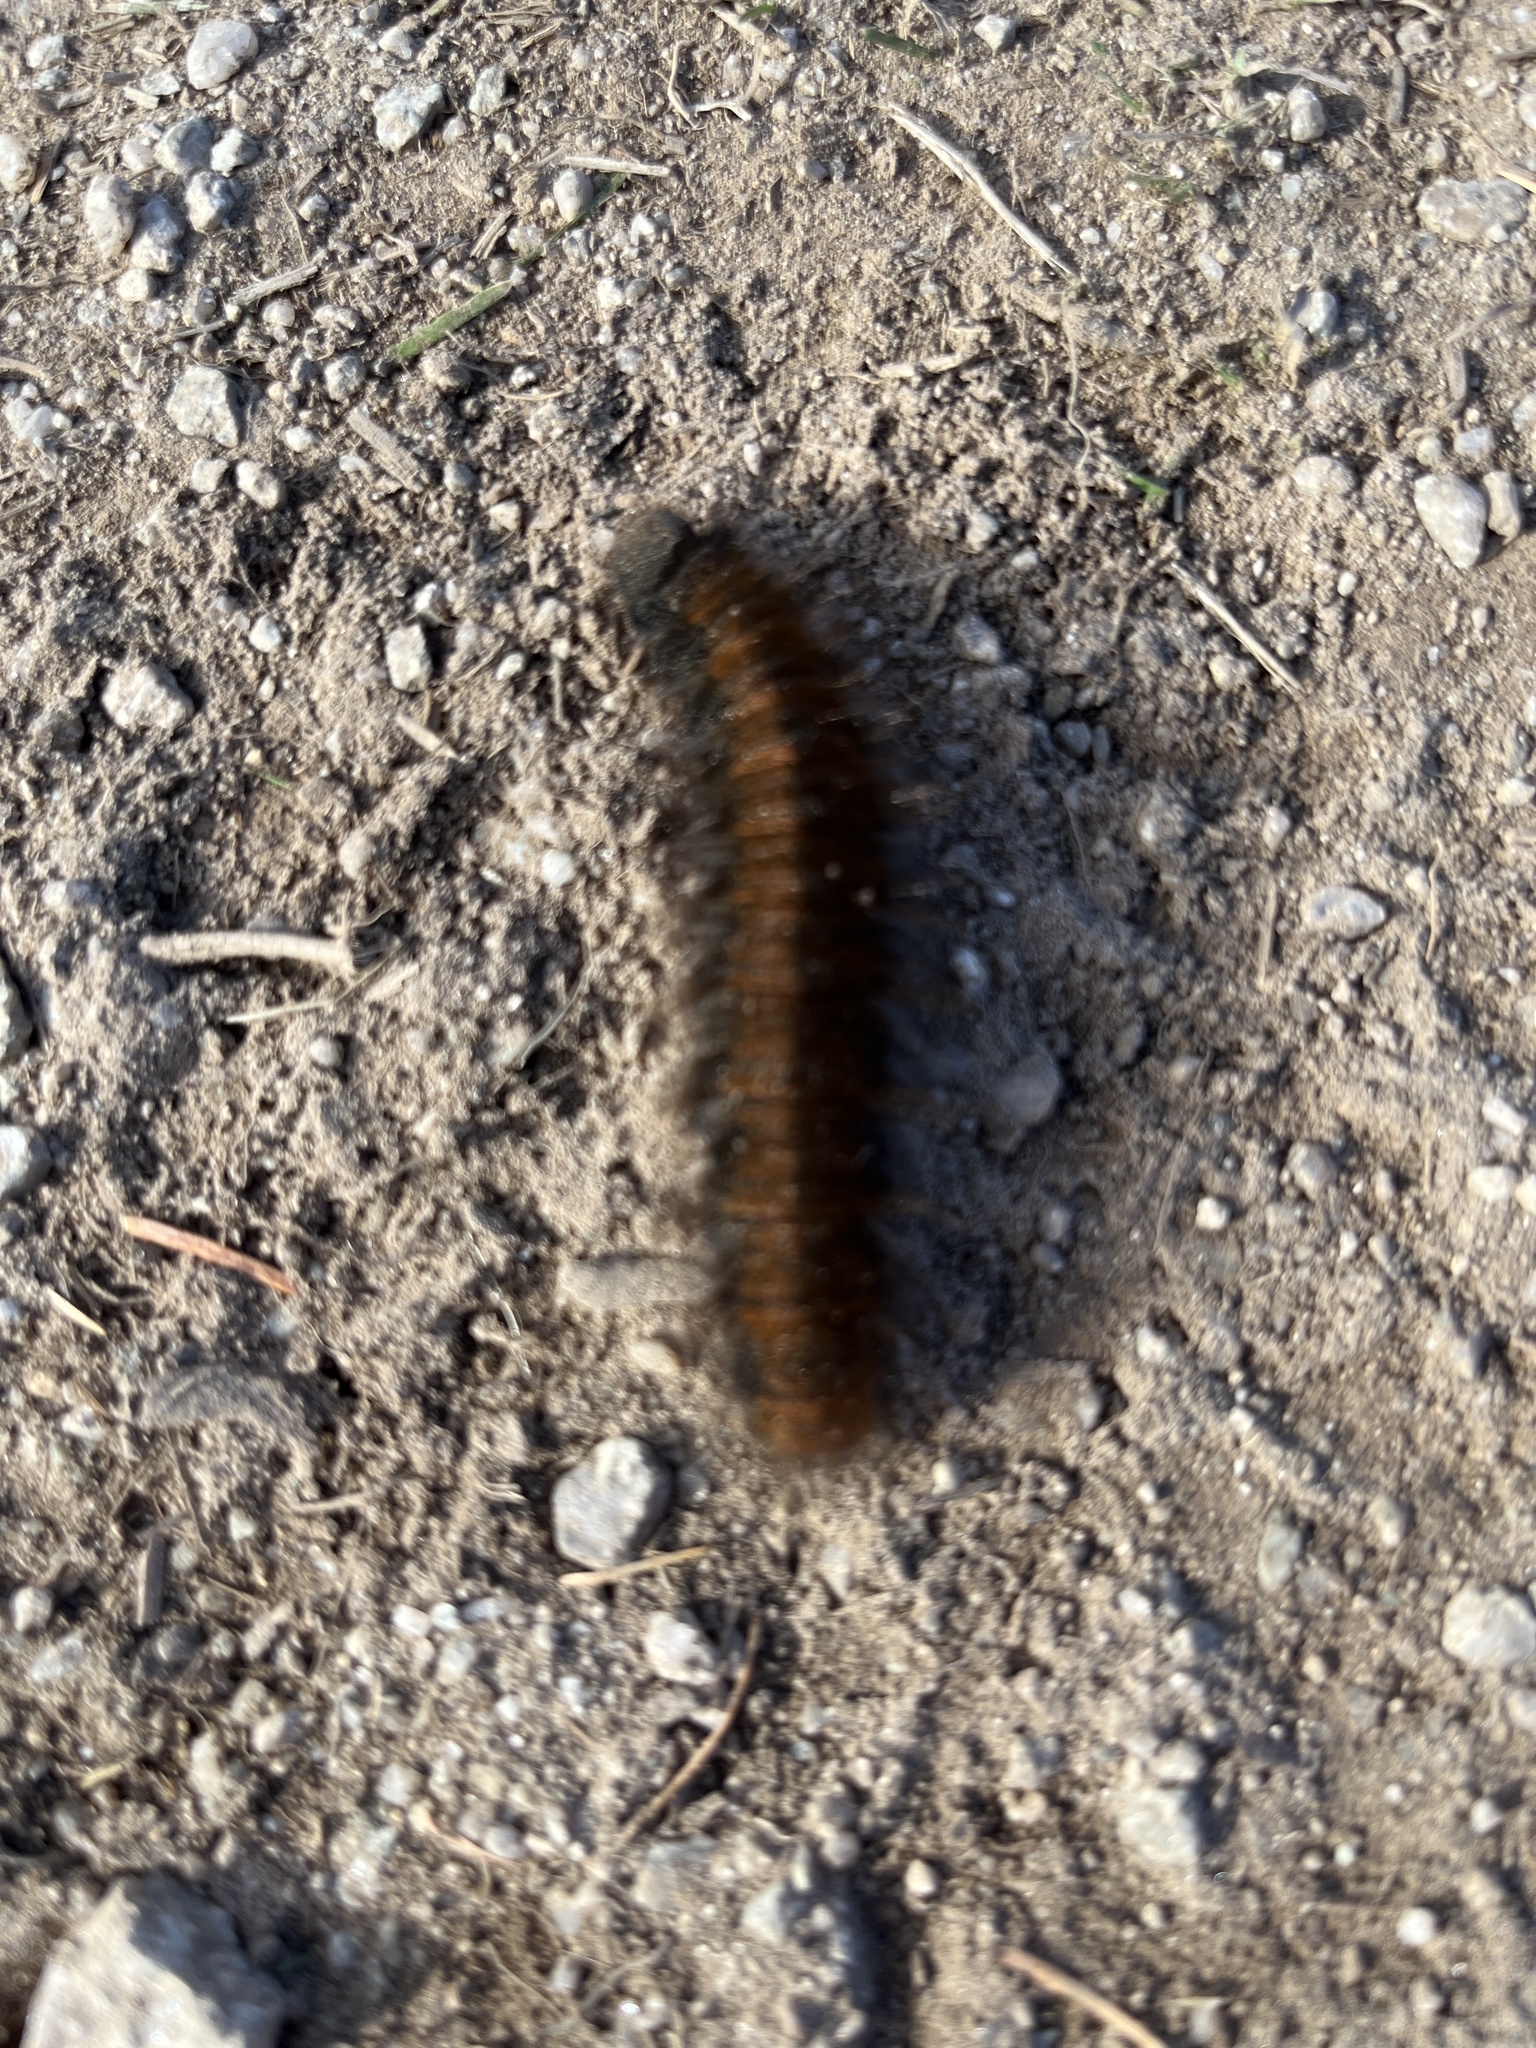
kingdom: Animalia
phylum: Arthropoda
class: Insecta
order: Lepidoptera
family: Lasiocampidae
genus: Macrothylacia
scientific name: Macrothylacia rubi
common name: Fox moth
